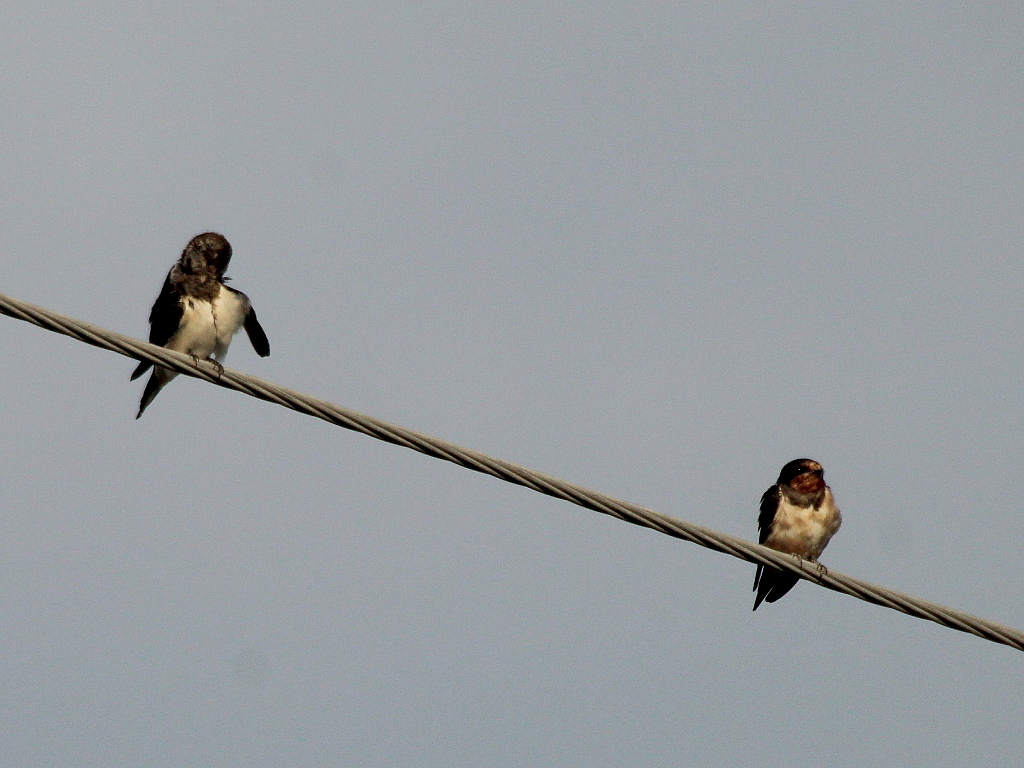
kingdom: Animalia
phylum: Chordata
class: Aves
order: Passeriformes
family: Hirundinidae
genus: Hirundo
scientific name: Hirundo rustica
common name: Barn swallow
